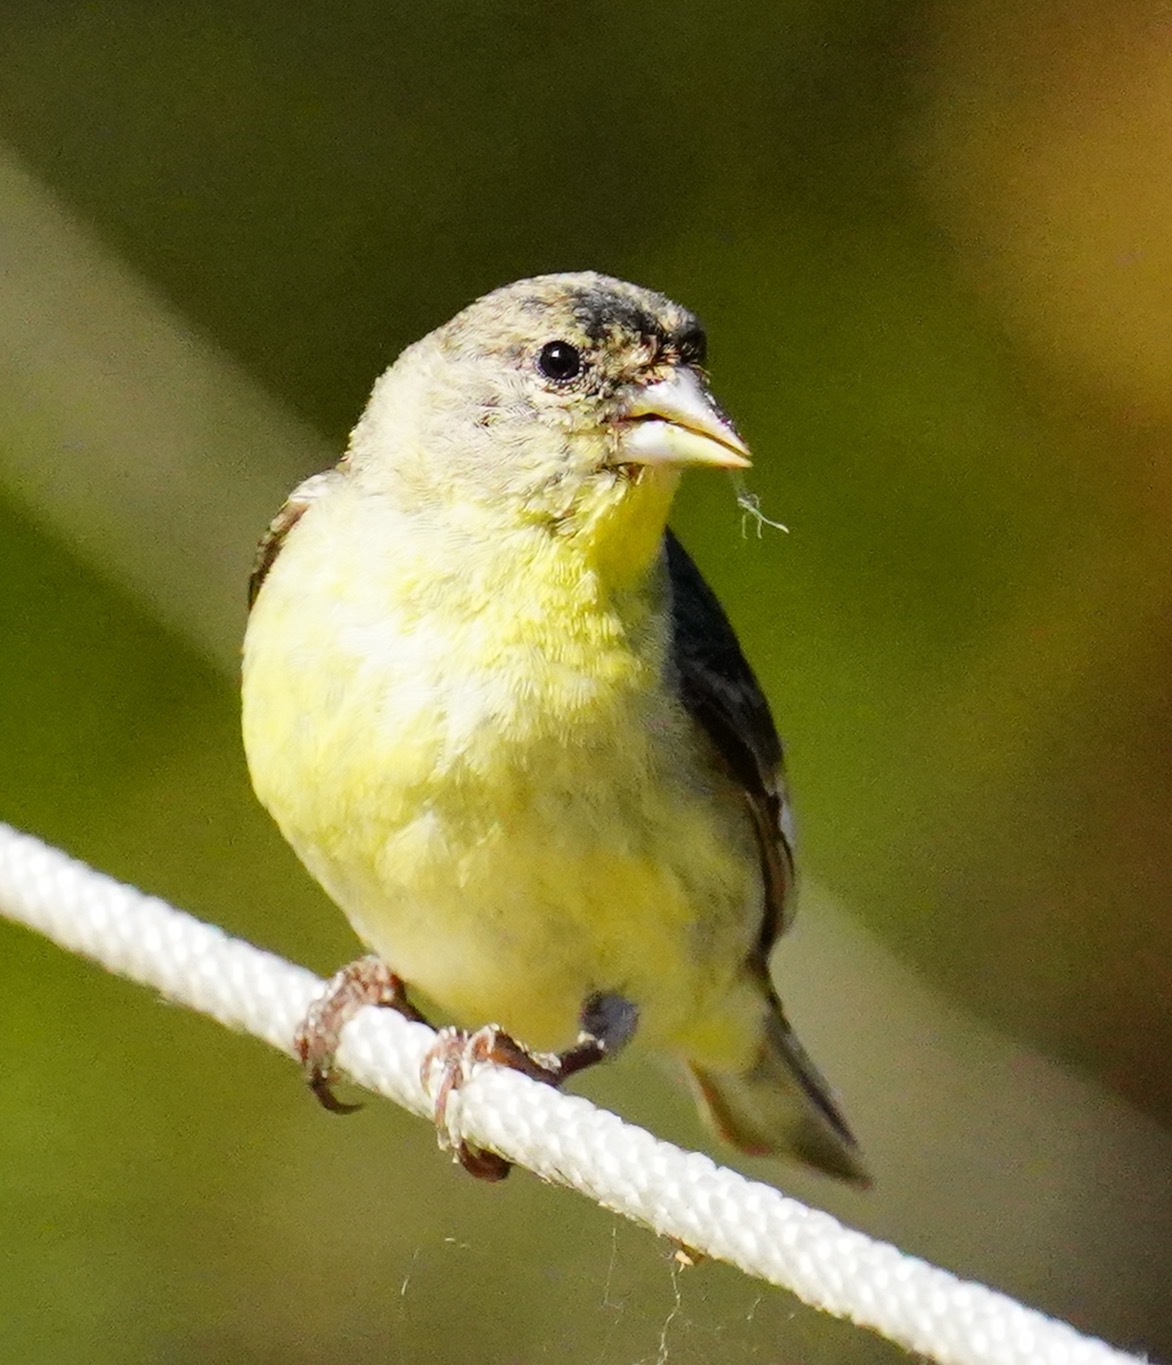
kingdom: Animalia
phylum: Chordata
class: Aves
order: Passeriformes
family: Fringillidae
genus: Spinus
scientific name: Spinus psaltria
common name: Lesser goldfinch
